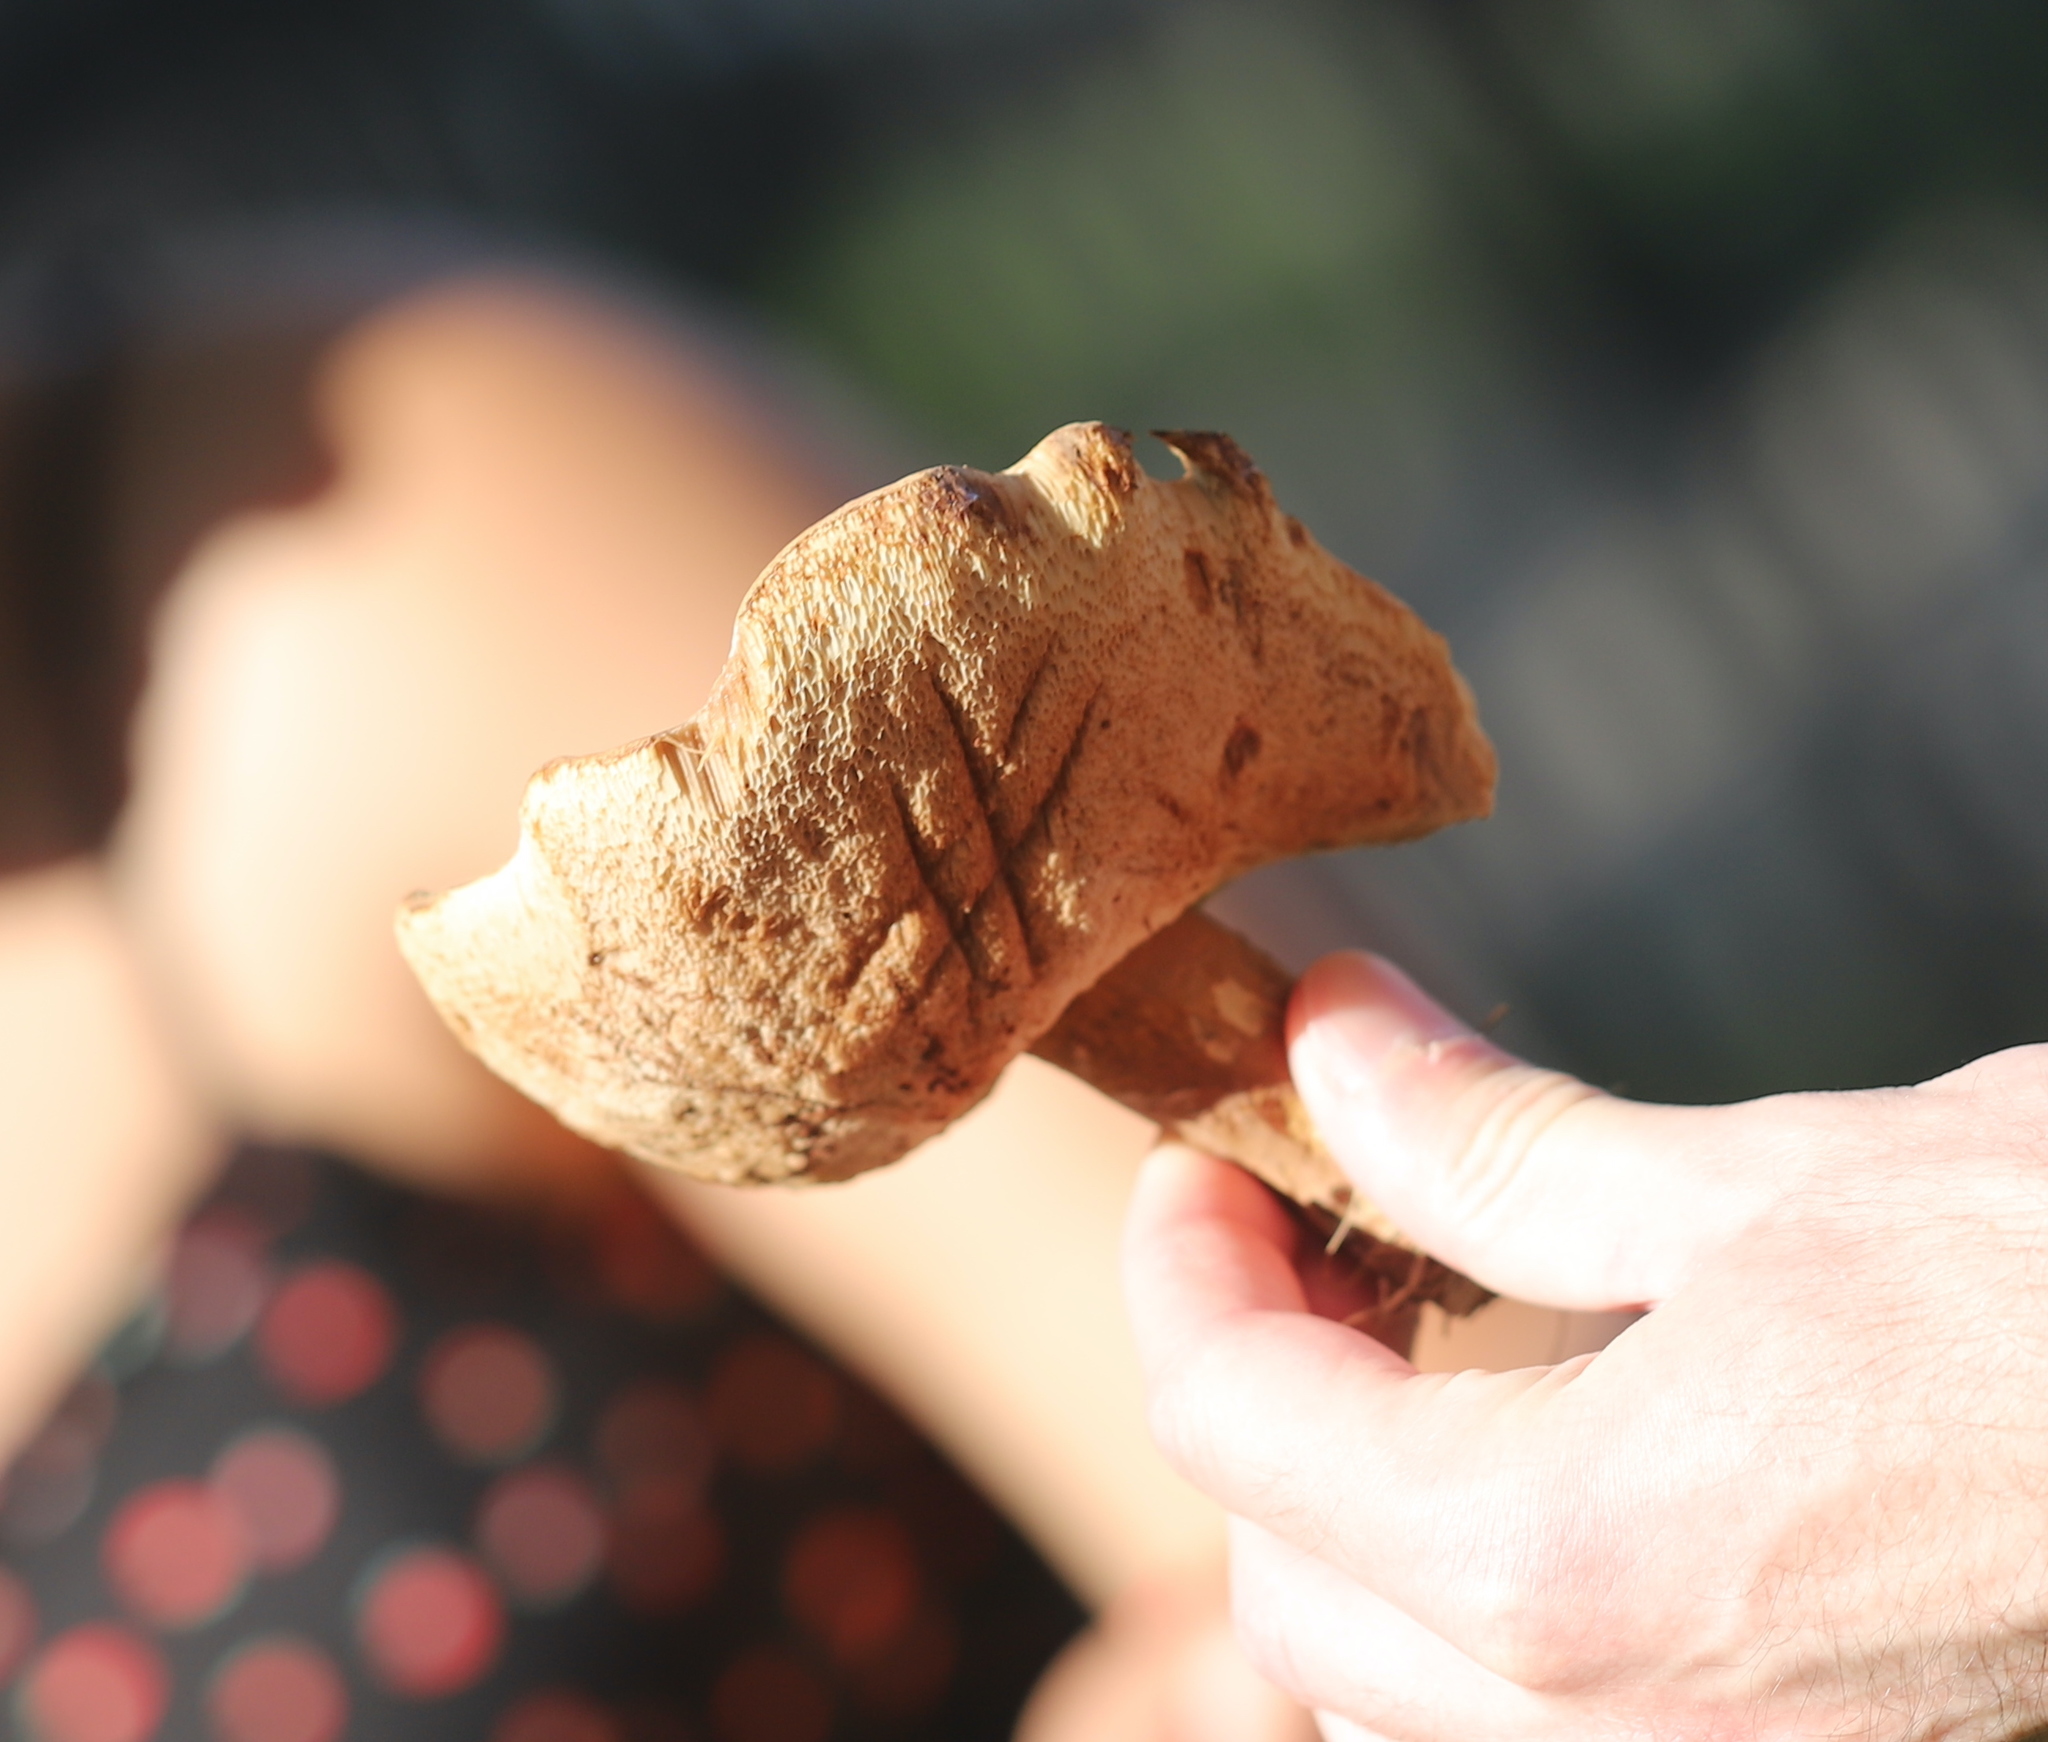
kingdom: Fungi
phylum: Basidiomycota
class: Agaricomycetes
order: Boletales
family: Boletaceae
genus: Tylopilus
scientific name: Tylopilus badiceps
